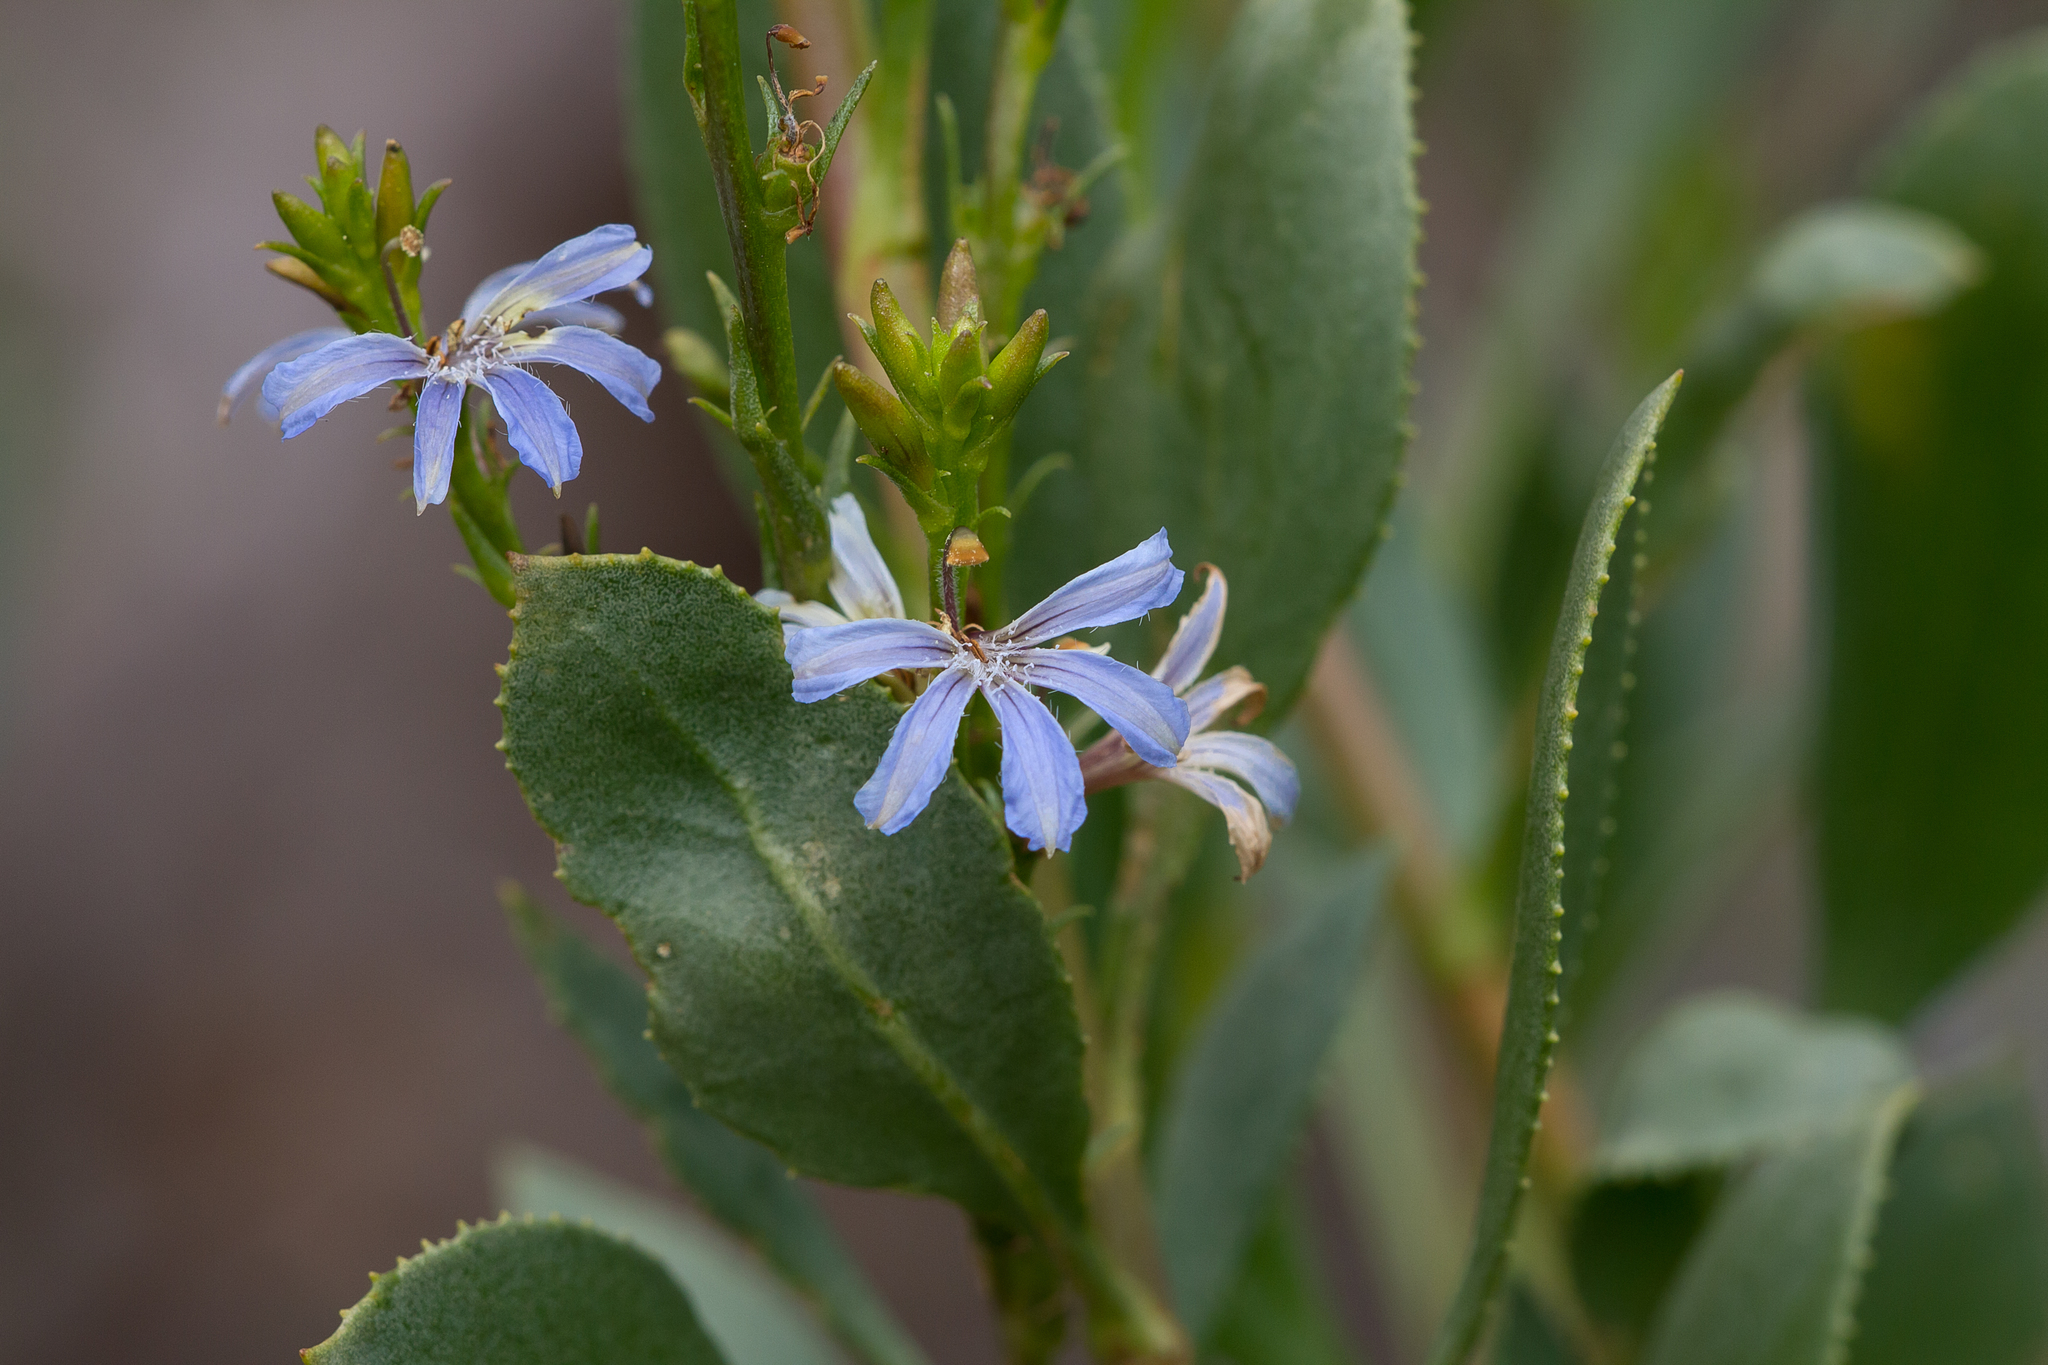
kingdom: Plantae
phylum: Tracheophyta
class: Magnoliopsida
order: Asterales
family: Goodeniaceae
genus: Scaevola
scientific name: Scaevola angustata
